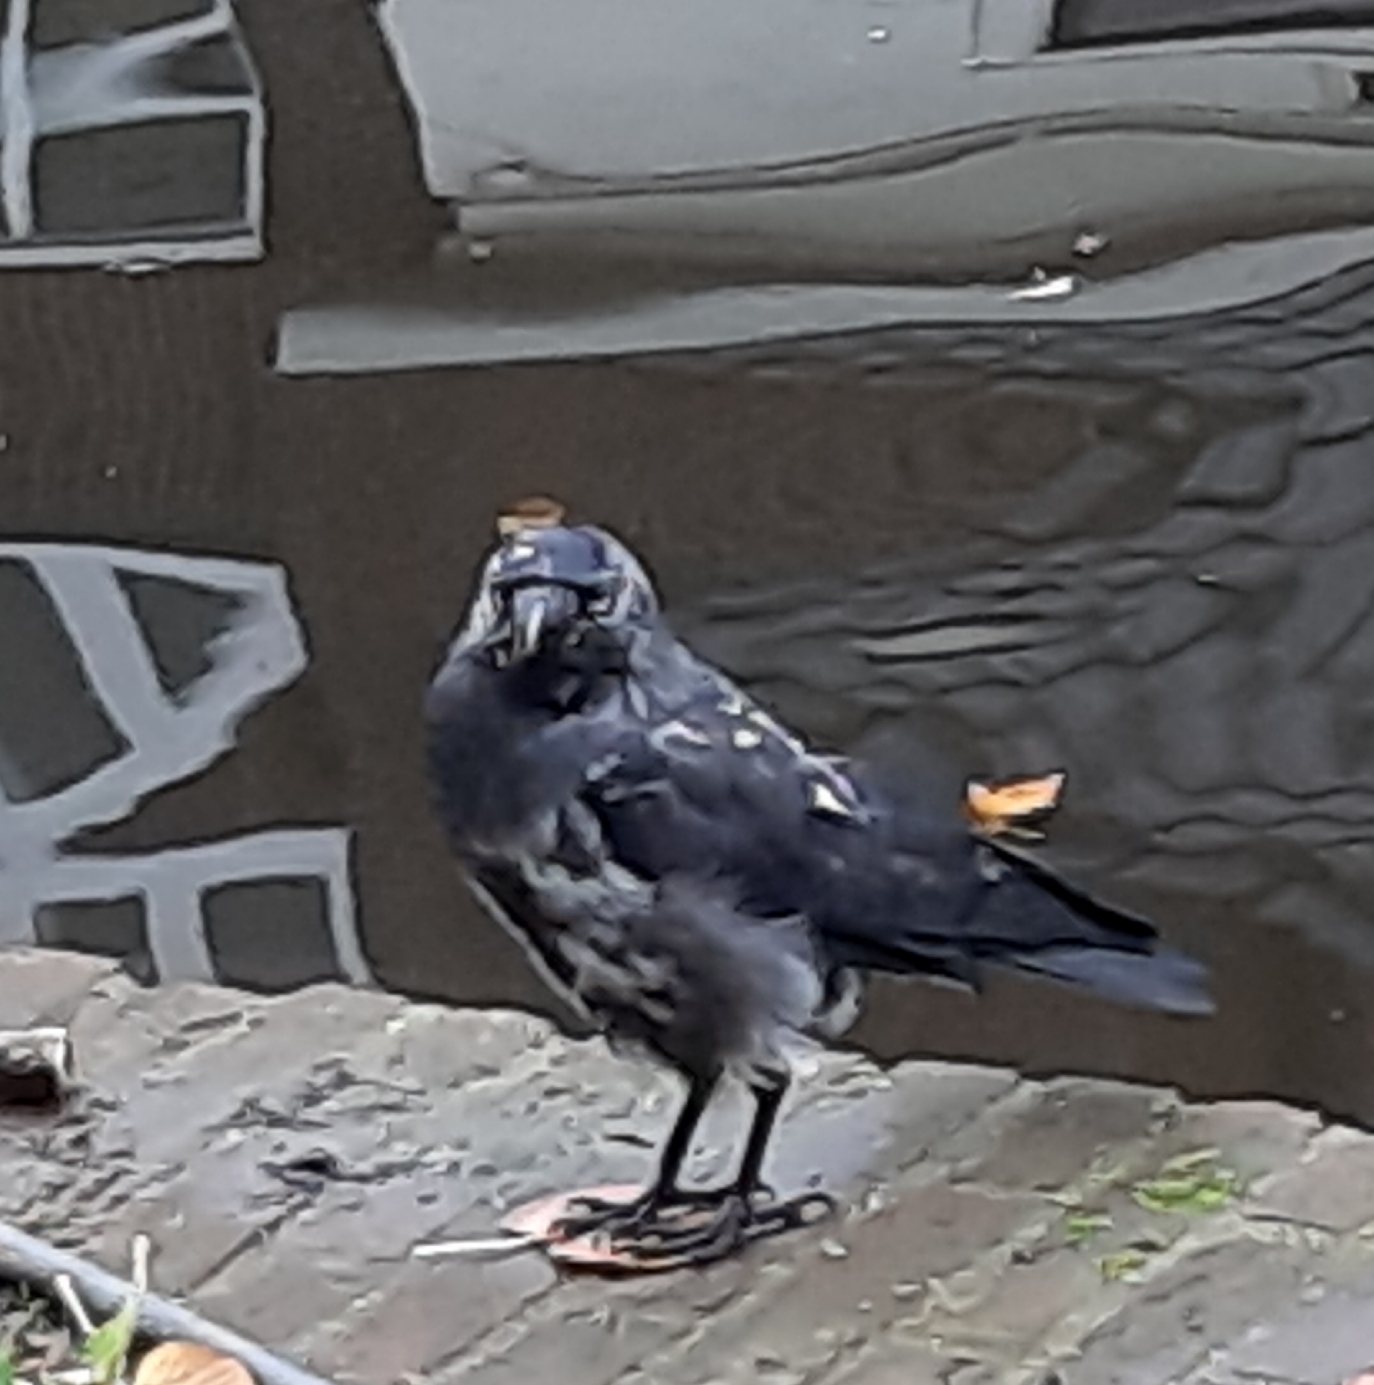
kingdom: Animalia
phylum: Chordata
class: Aves
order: Passeriformes
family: Corvidae
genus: Coloeus
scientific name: Coloeus monedula
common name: Western jackdaw
